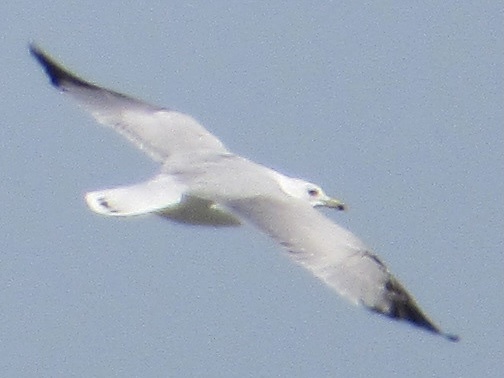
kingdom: Animalia
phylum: Chordata
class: Aves
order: Charadriiformes
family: Laridae
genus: Larus
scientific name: Larus delawarensis
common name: Ring-billed gull
